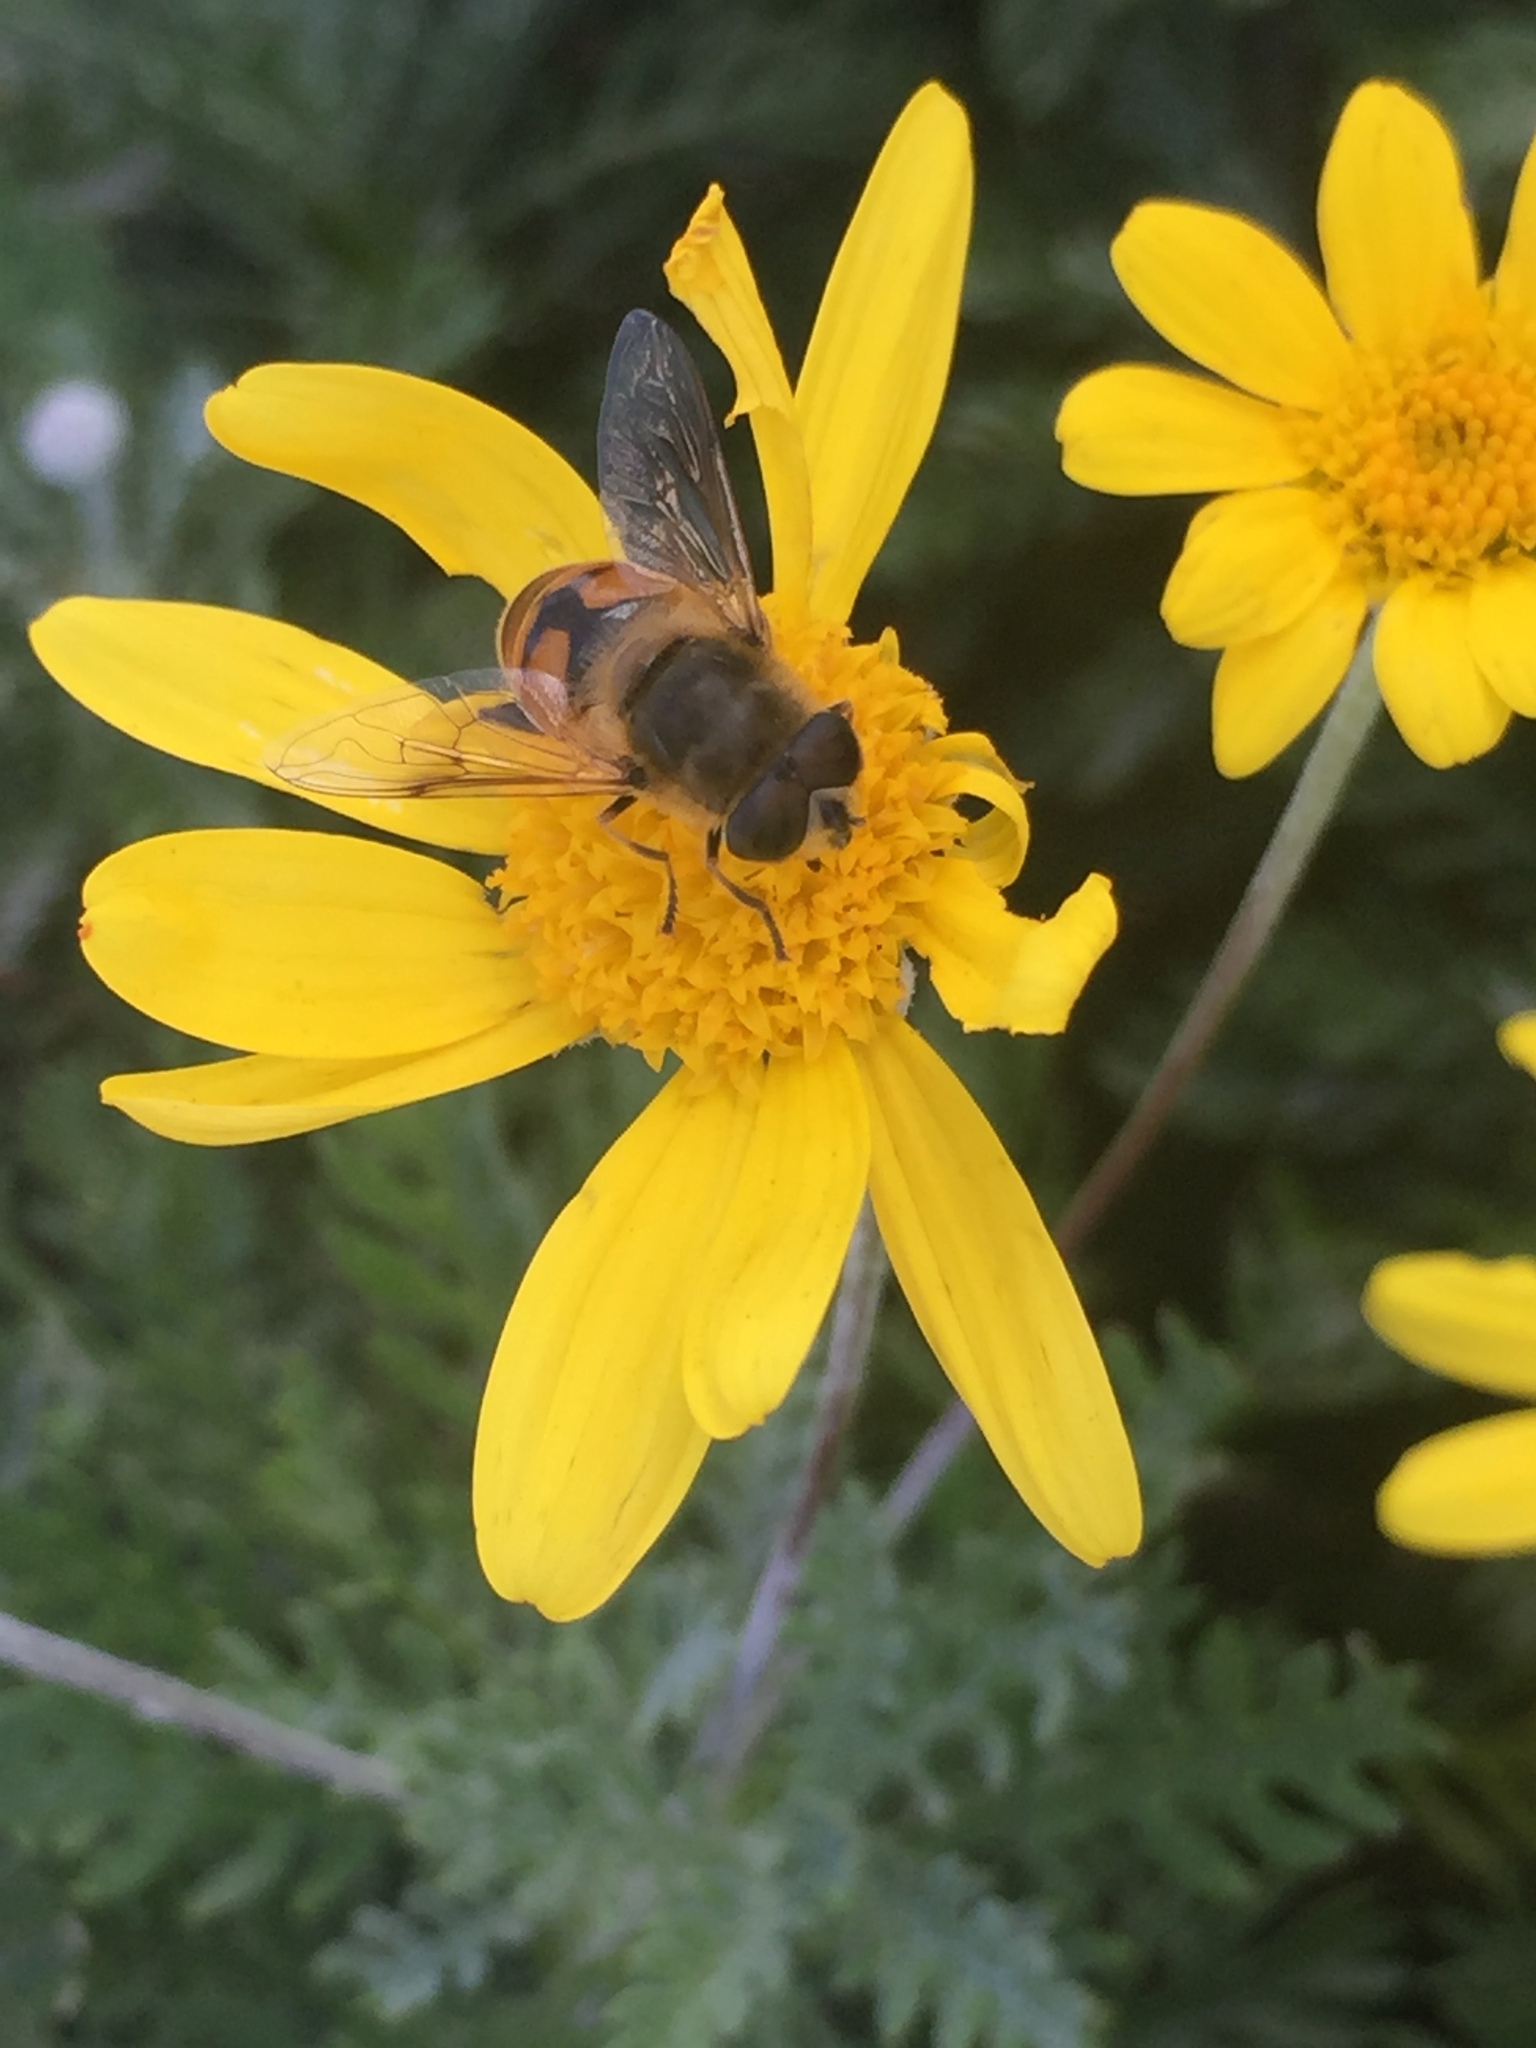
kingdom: Animalia
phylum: Arthropoda
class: Insecta
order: Diptera
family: Syrphidae
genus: Eristalis
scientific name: Eristalis tenax
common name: Drone fly
